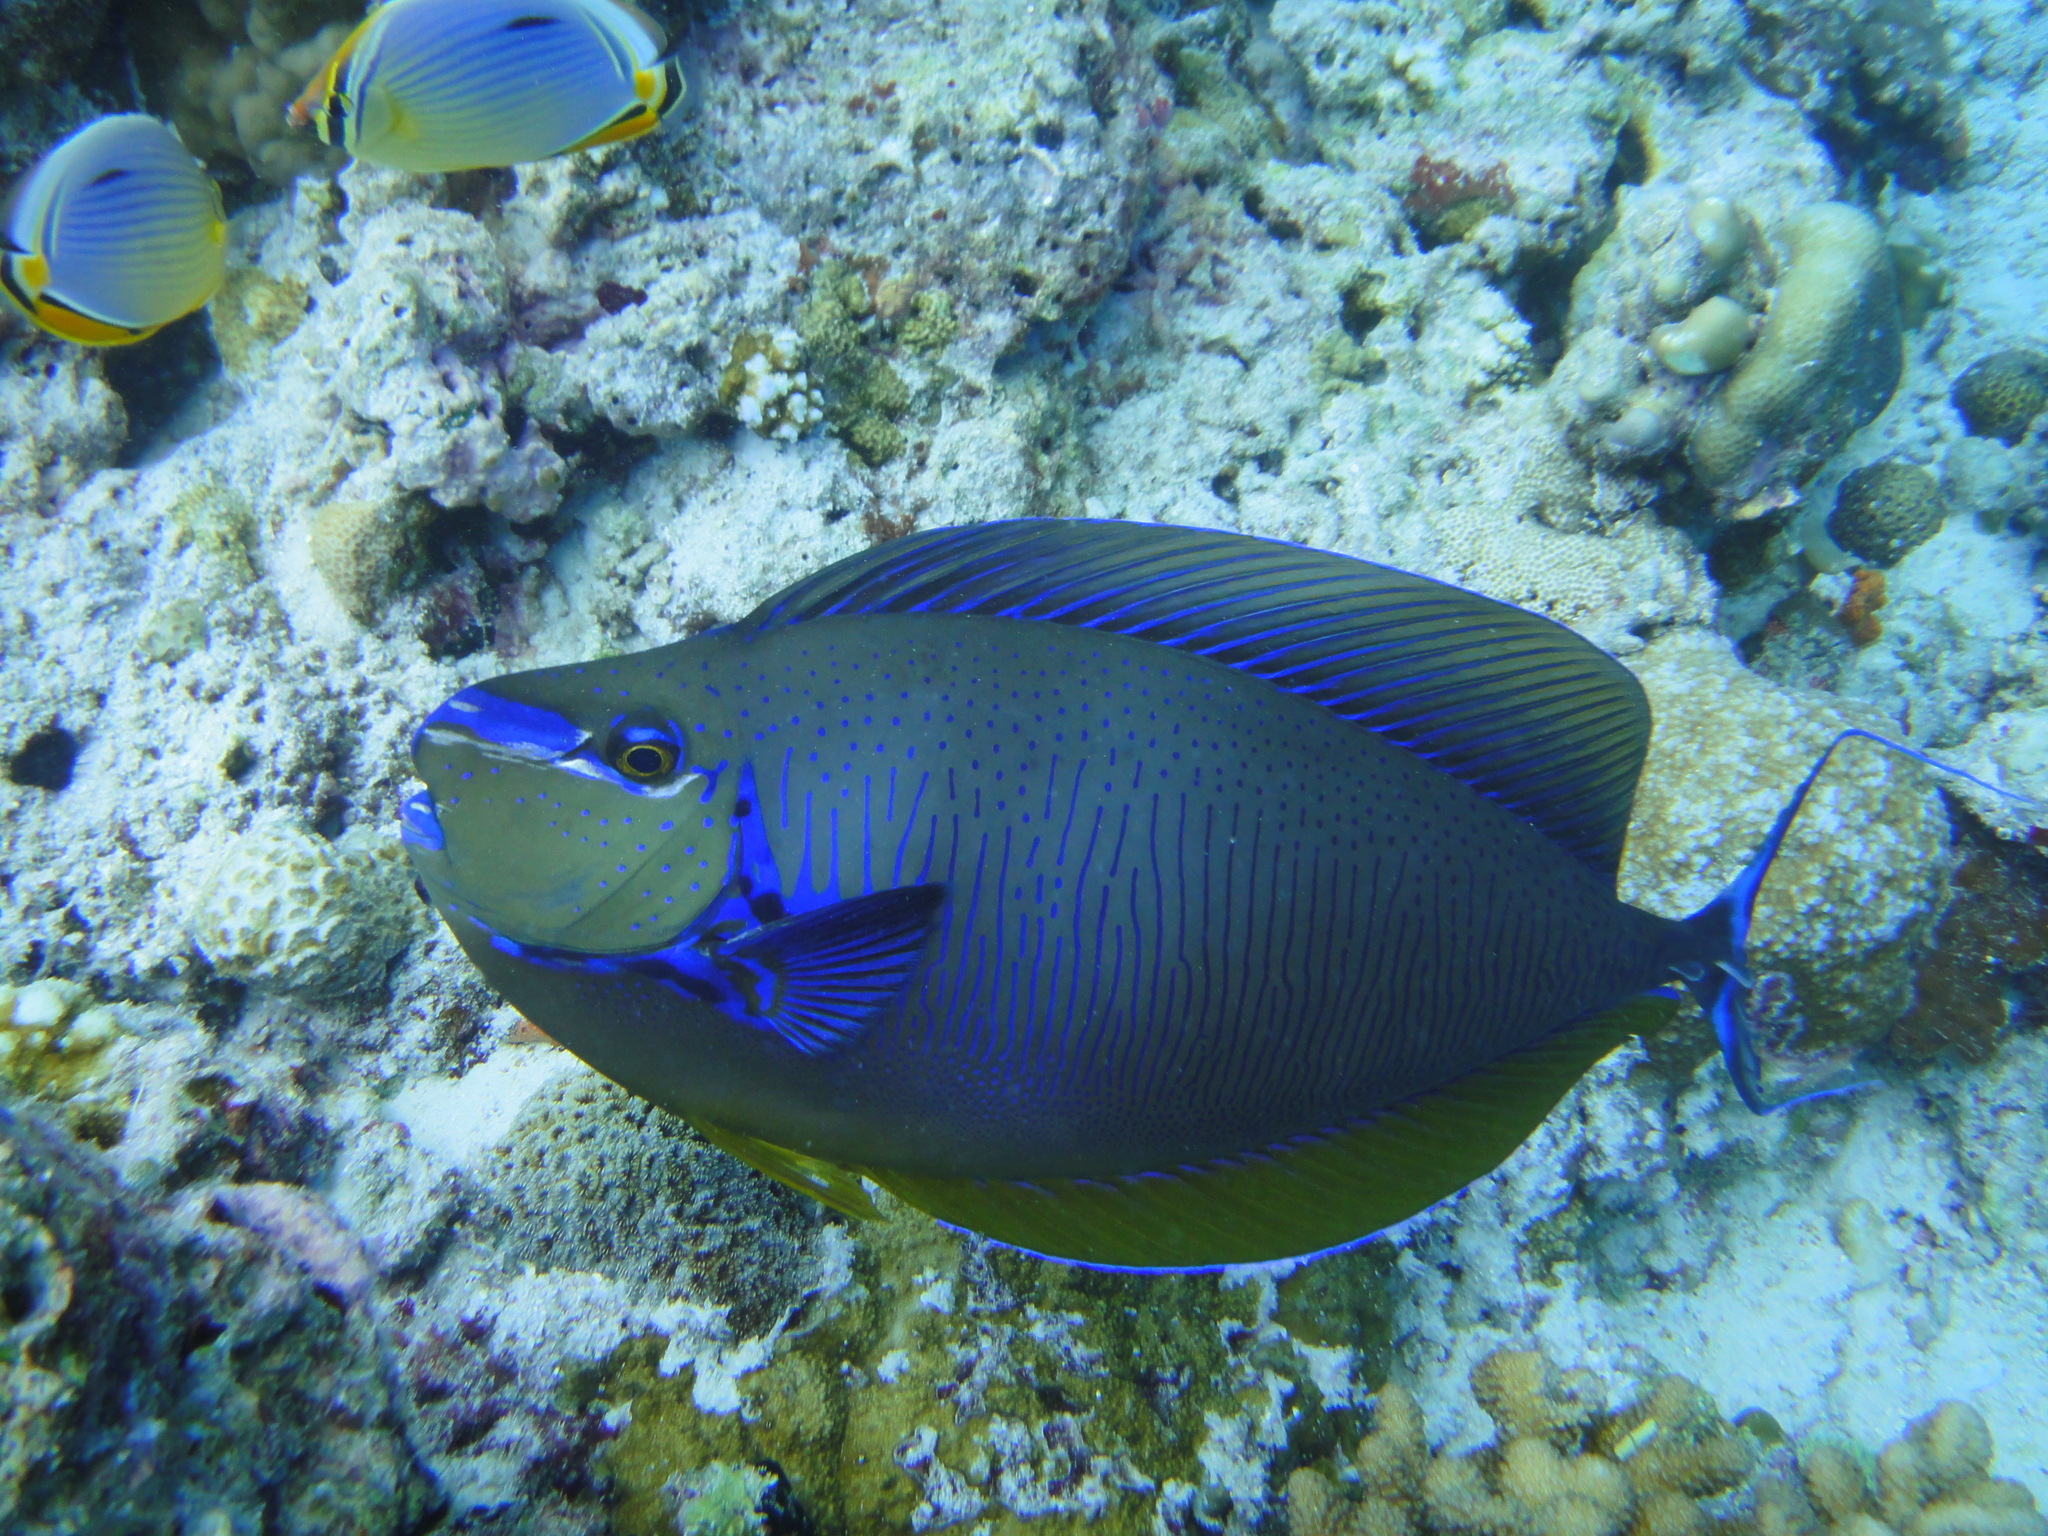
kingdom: Animalia
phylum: Chordata
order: Perciformes
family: Acanthuridae
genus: Naso
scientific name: Naso vlamingii
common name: Big-nose unicorn
